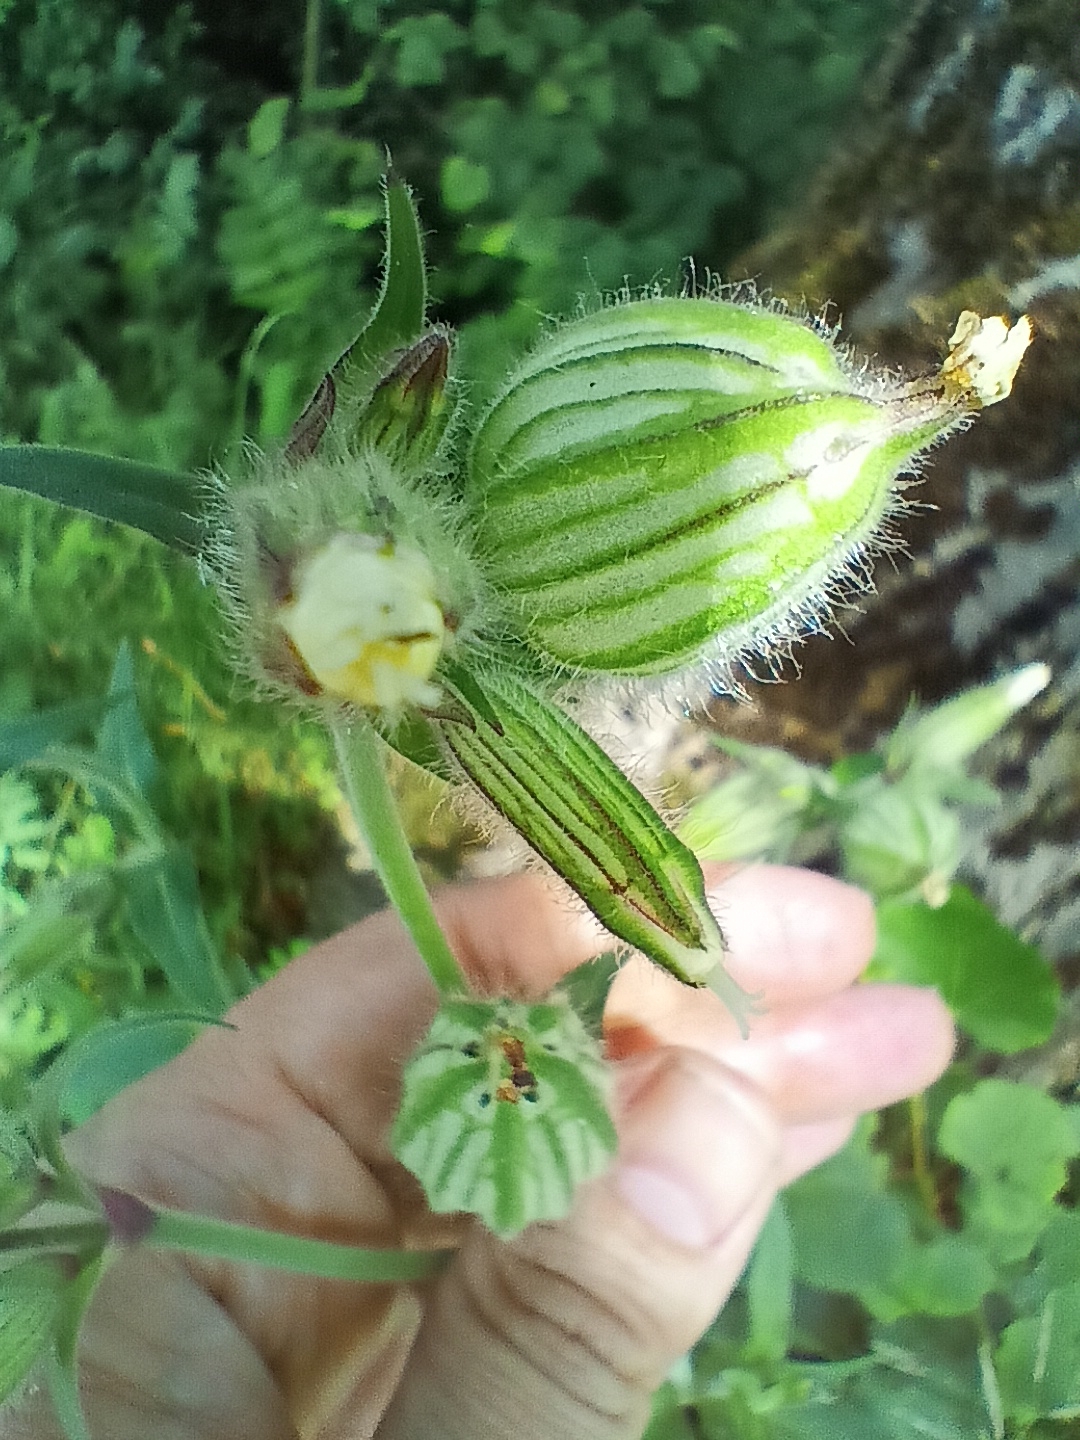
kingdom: Plantae
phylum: Tracheophyta
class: Magnoliopsida
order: Caryophyllales
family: Caryophyllaceae
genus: Silene
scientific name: Silene latifolia
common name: White campion
